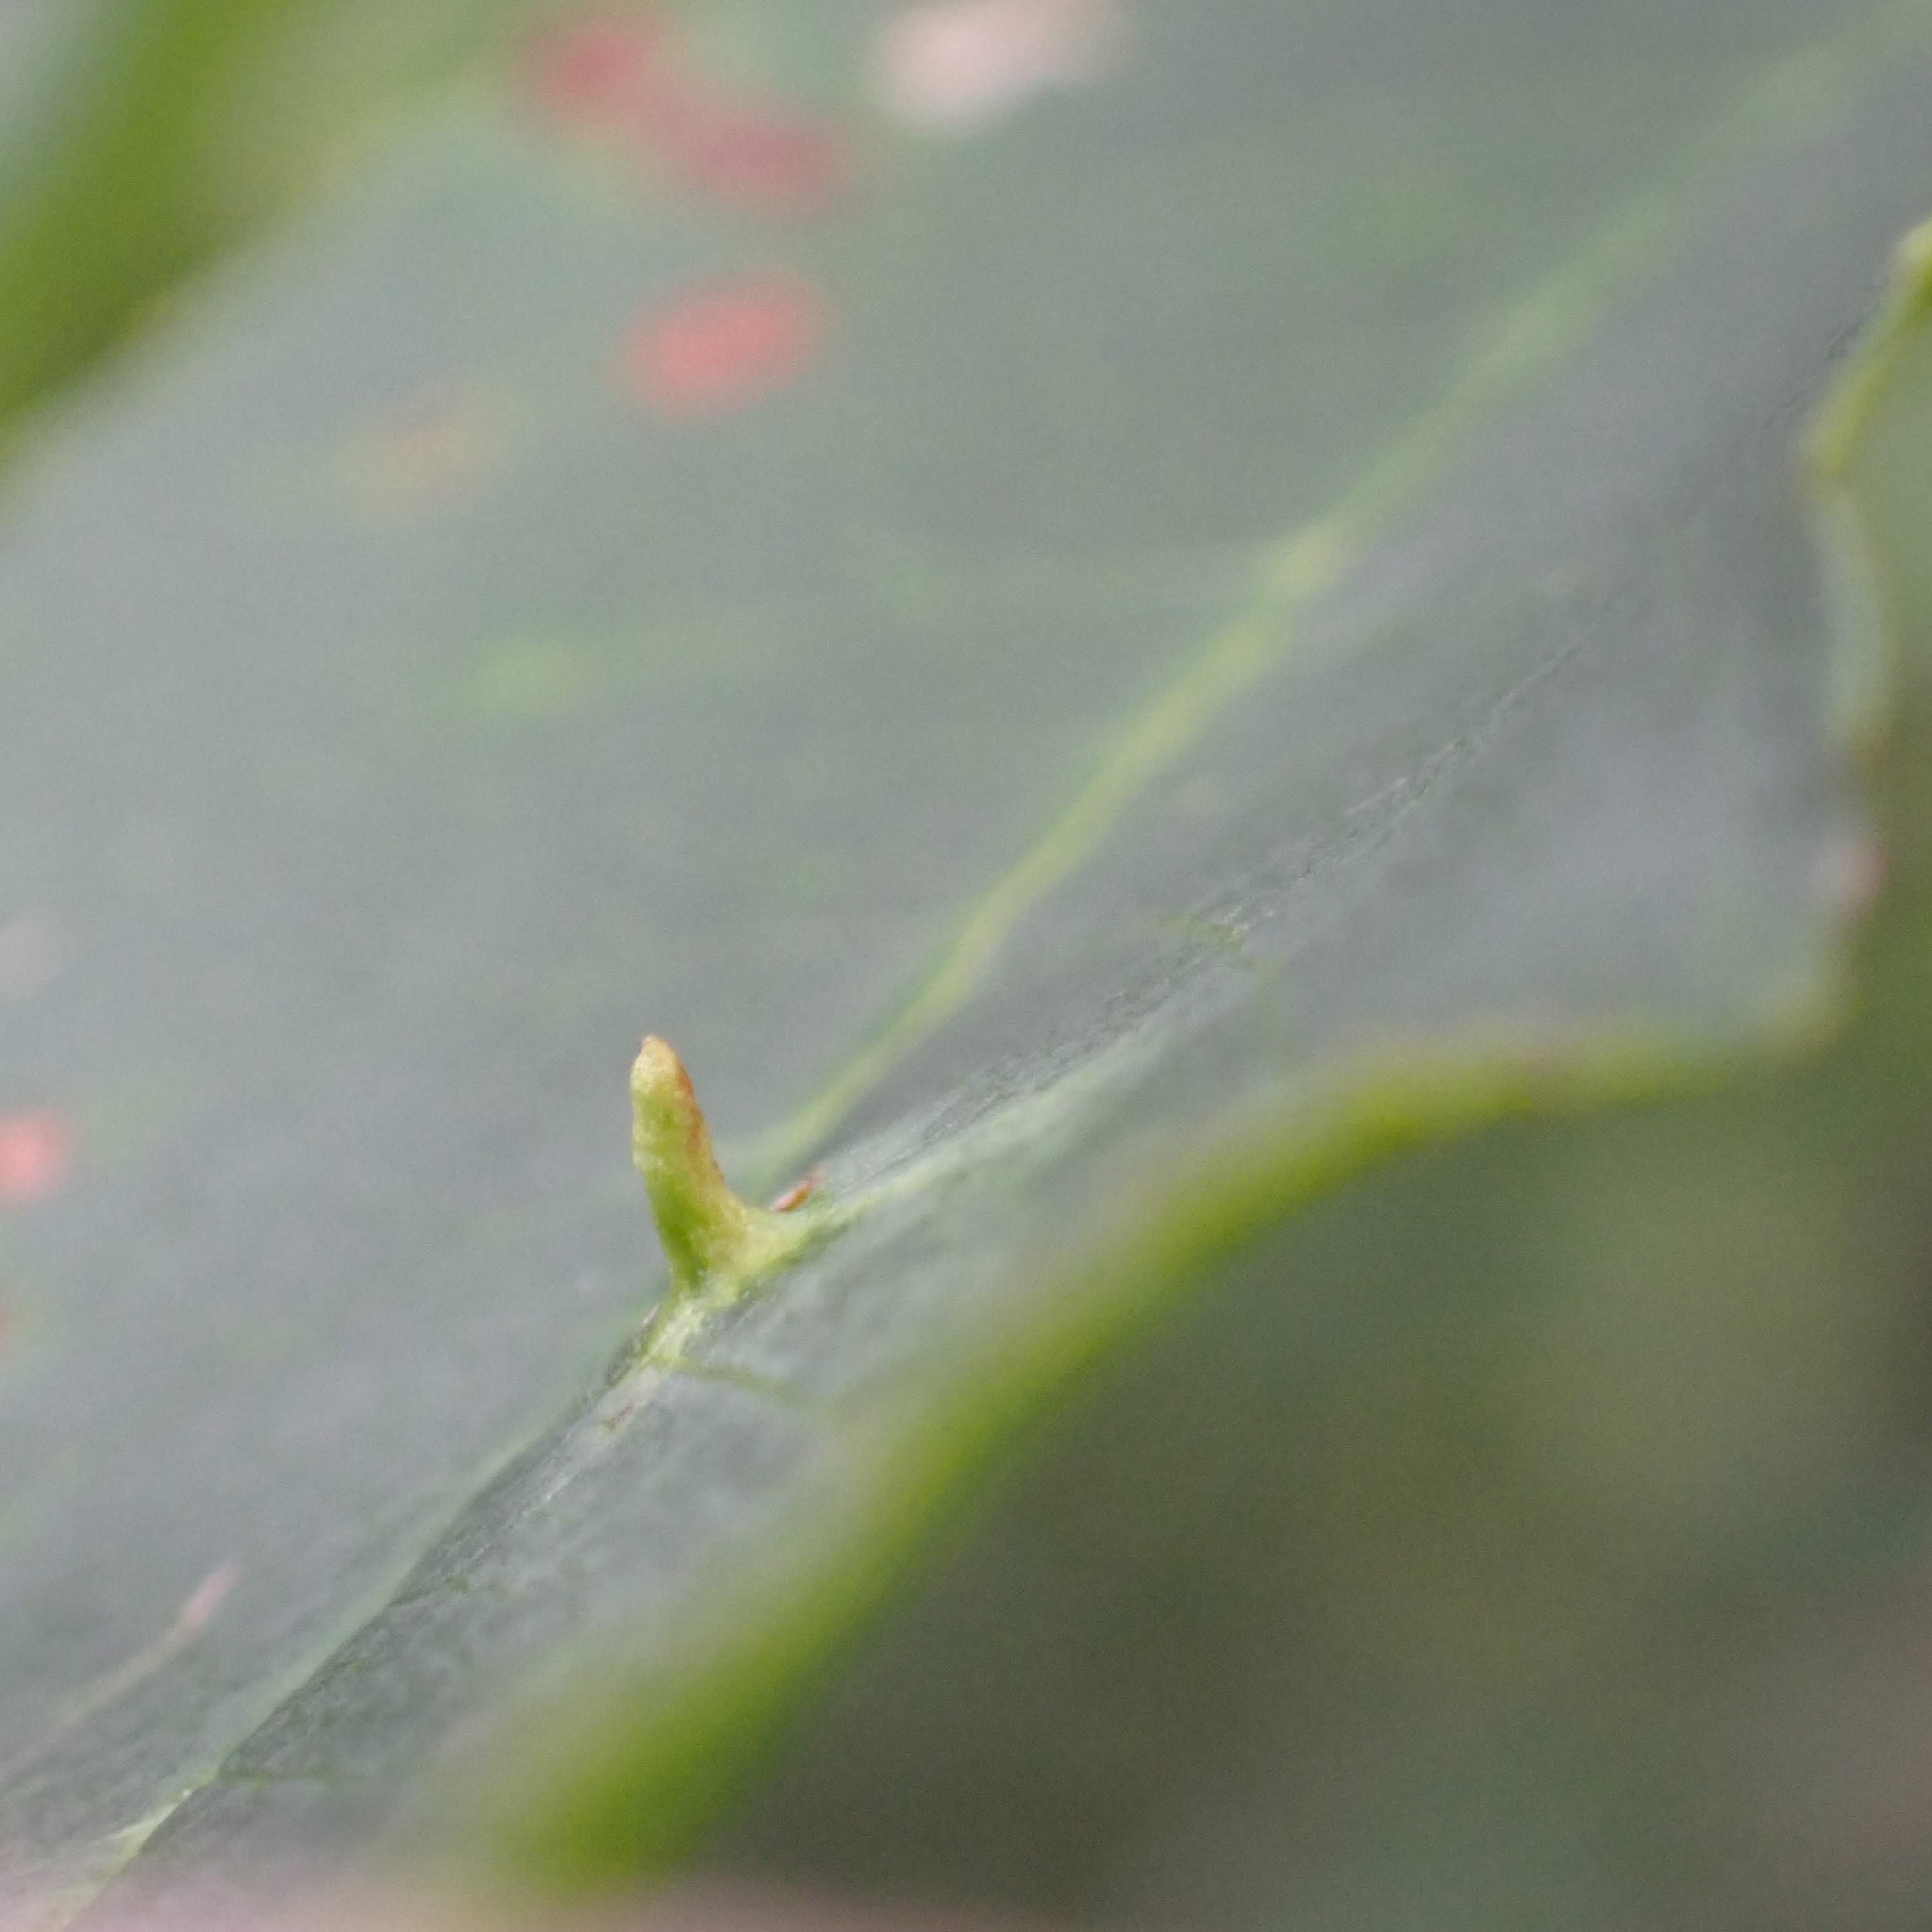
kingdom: Animalia
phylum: Arthropoda
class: Arachnida
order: Trombidiformes
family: Eriophyidae
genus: Eriophyes
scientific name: Eriophyes emarginatae
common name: Plum leaf gall mite
